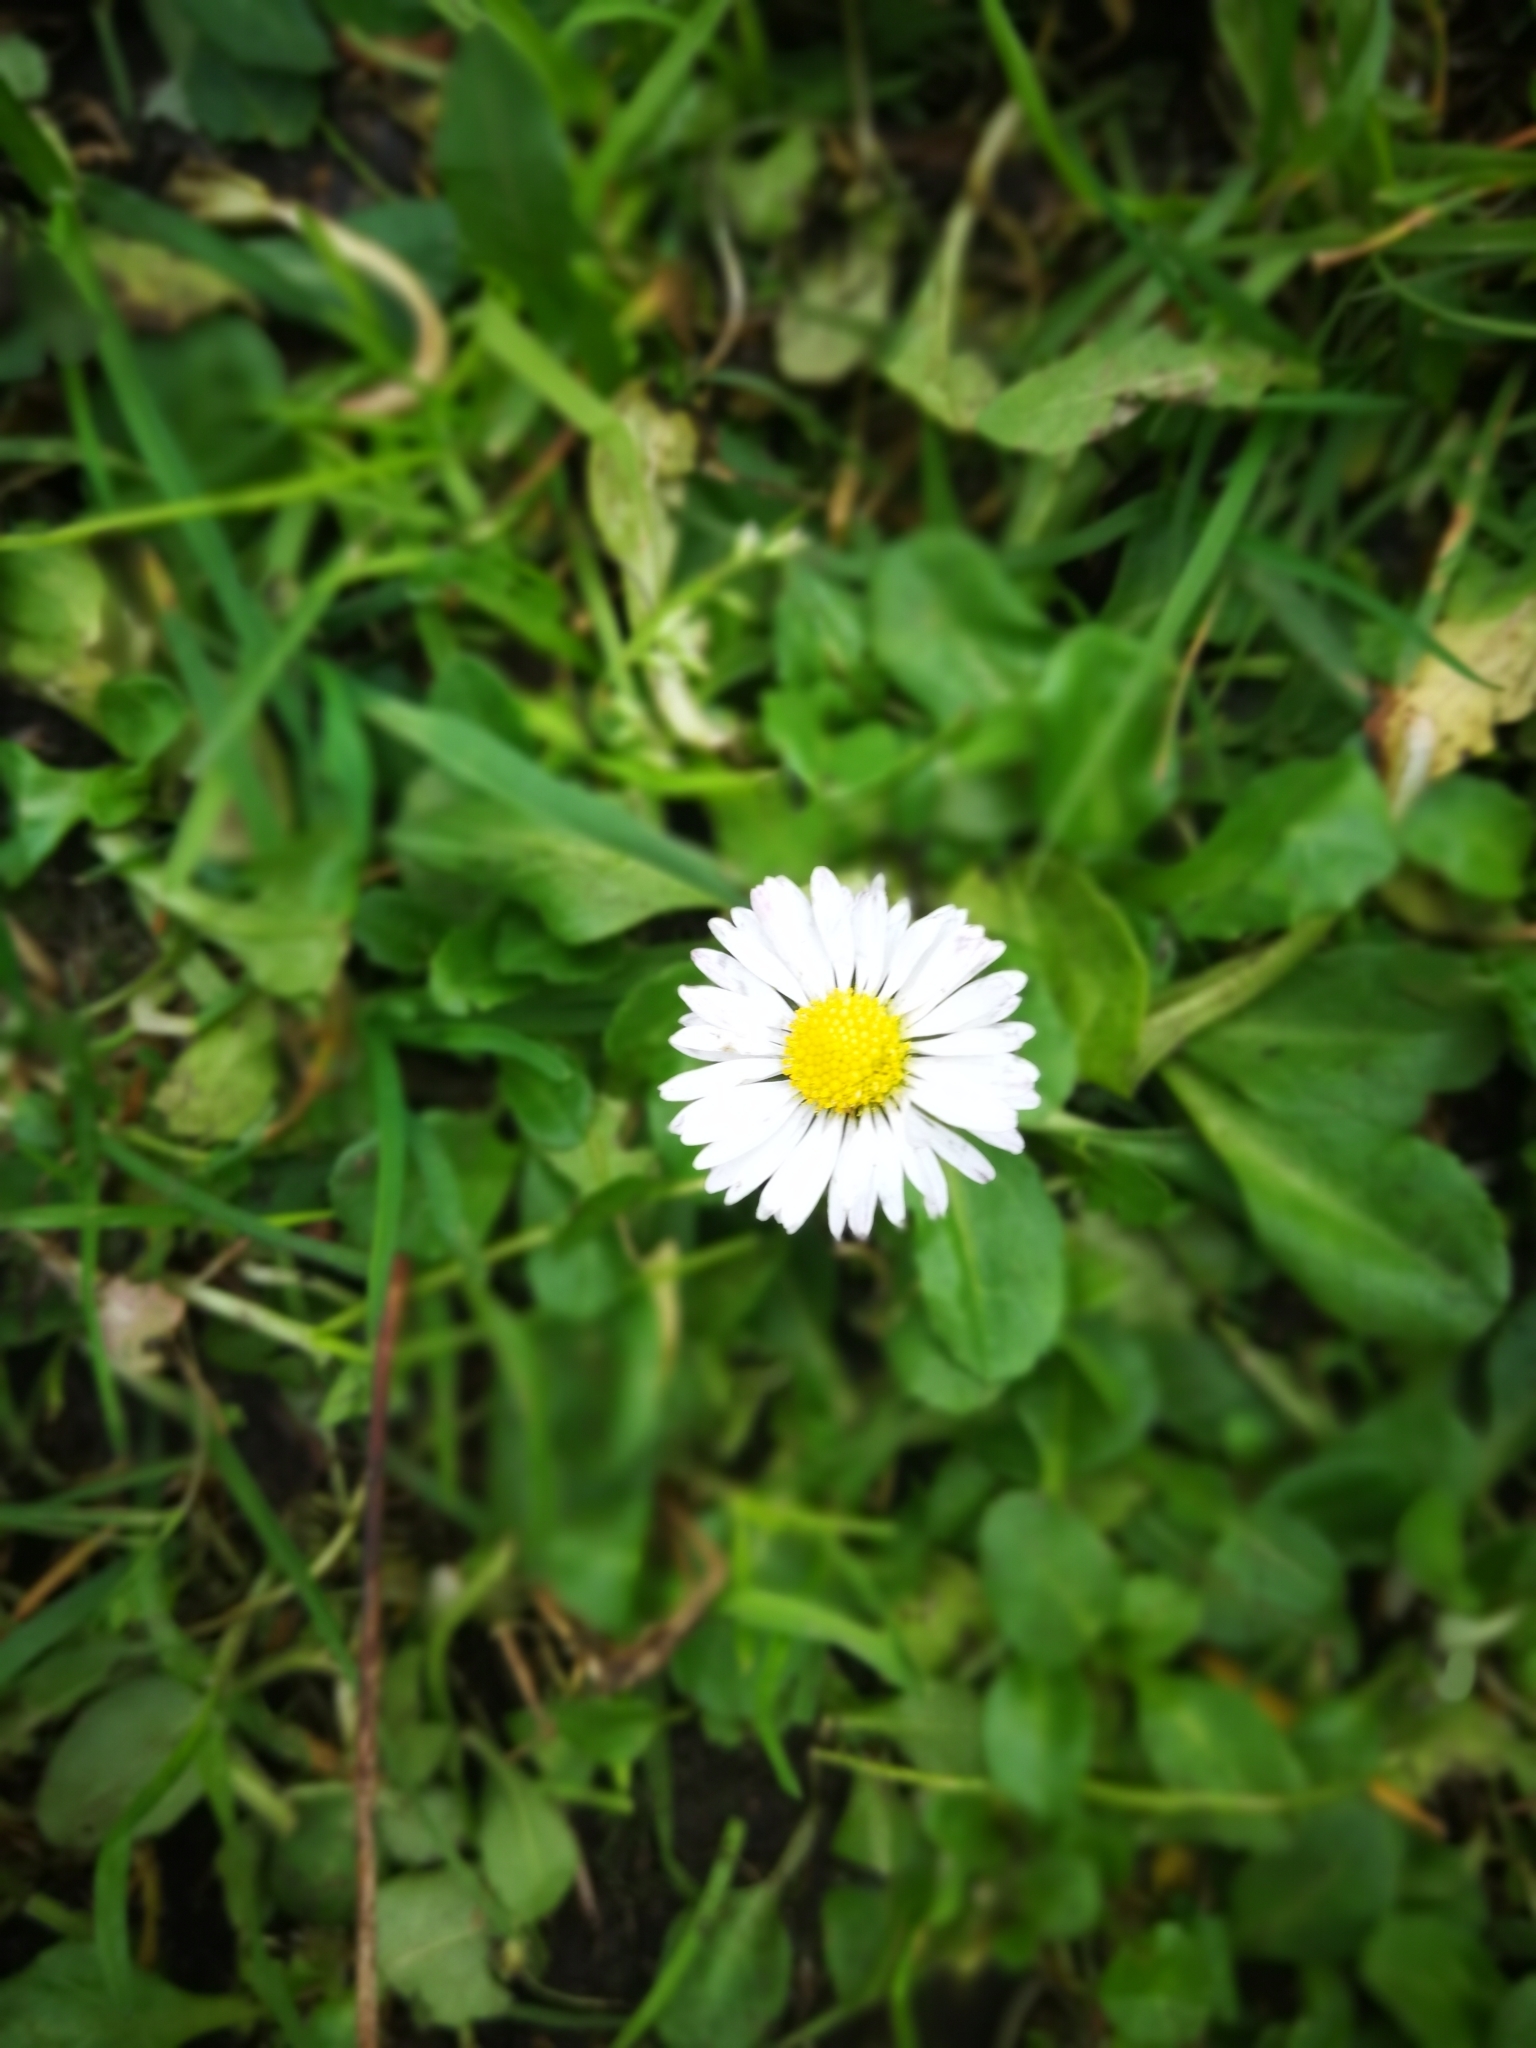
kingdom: Plantae
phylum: Tracheophyta
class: Magnoliopsida
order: Asterales
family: Asteraceae
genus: Bellis
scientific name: Bellis perennis
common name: Lawndaisy
